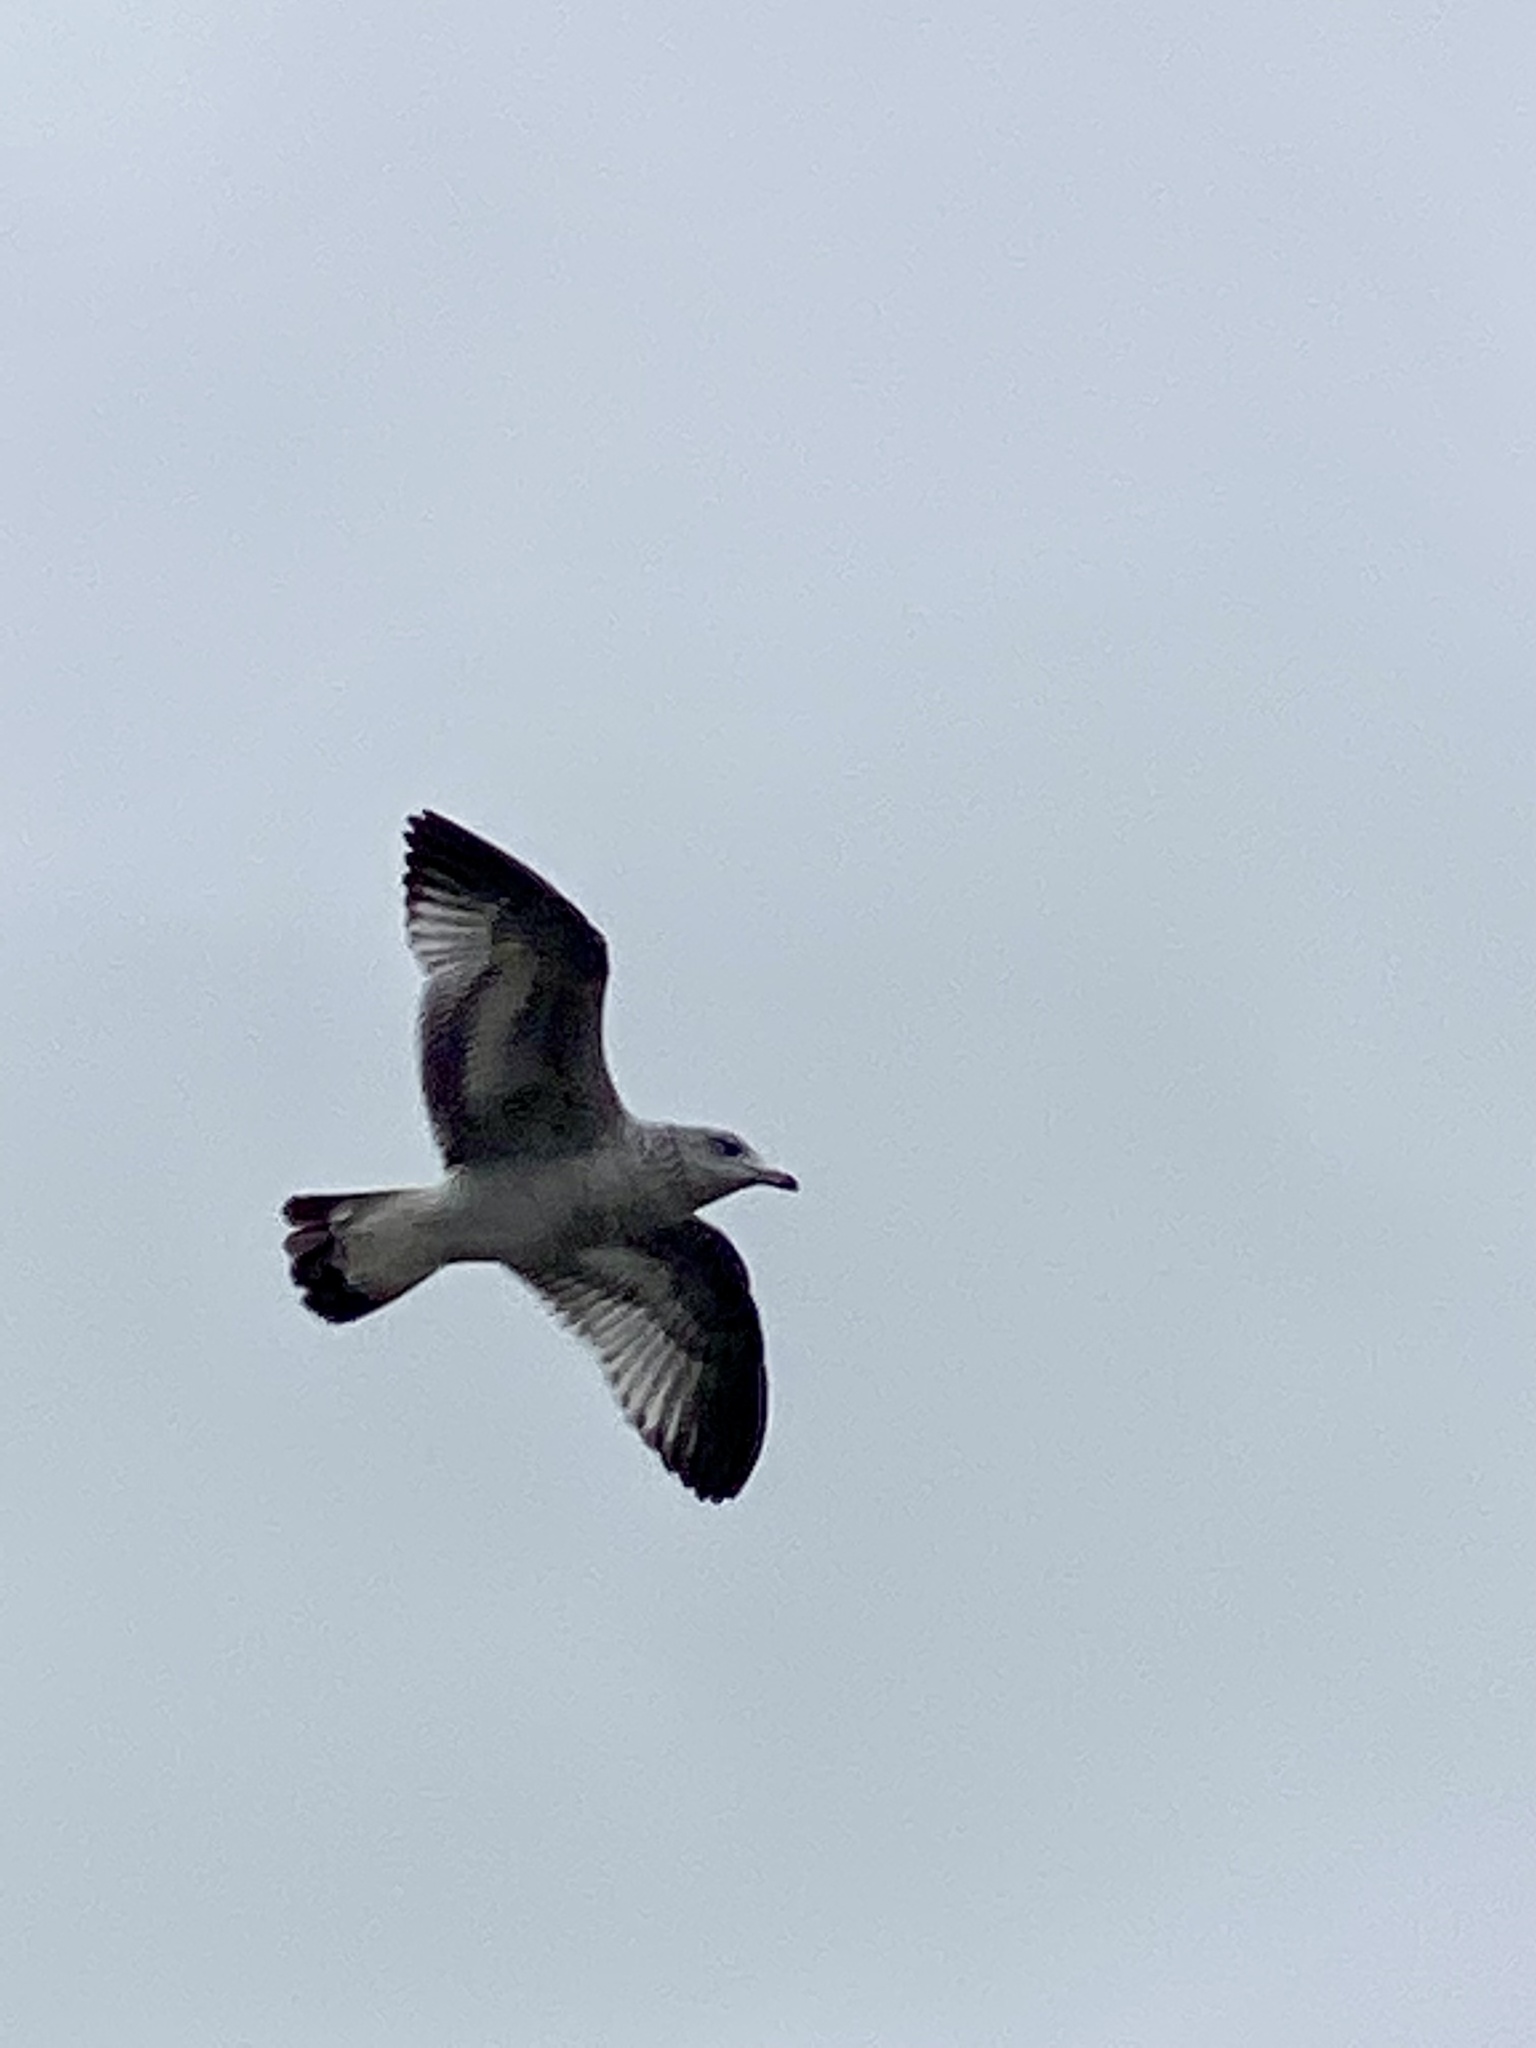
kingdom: Animalia
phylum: Chordata
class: Aves
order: Charadriiformes
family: Laridae
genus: Larus
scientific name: Larus delawarensis
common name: Ring-billed gull
